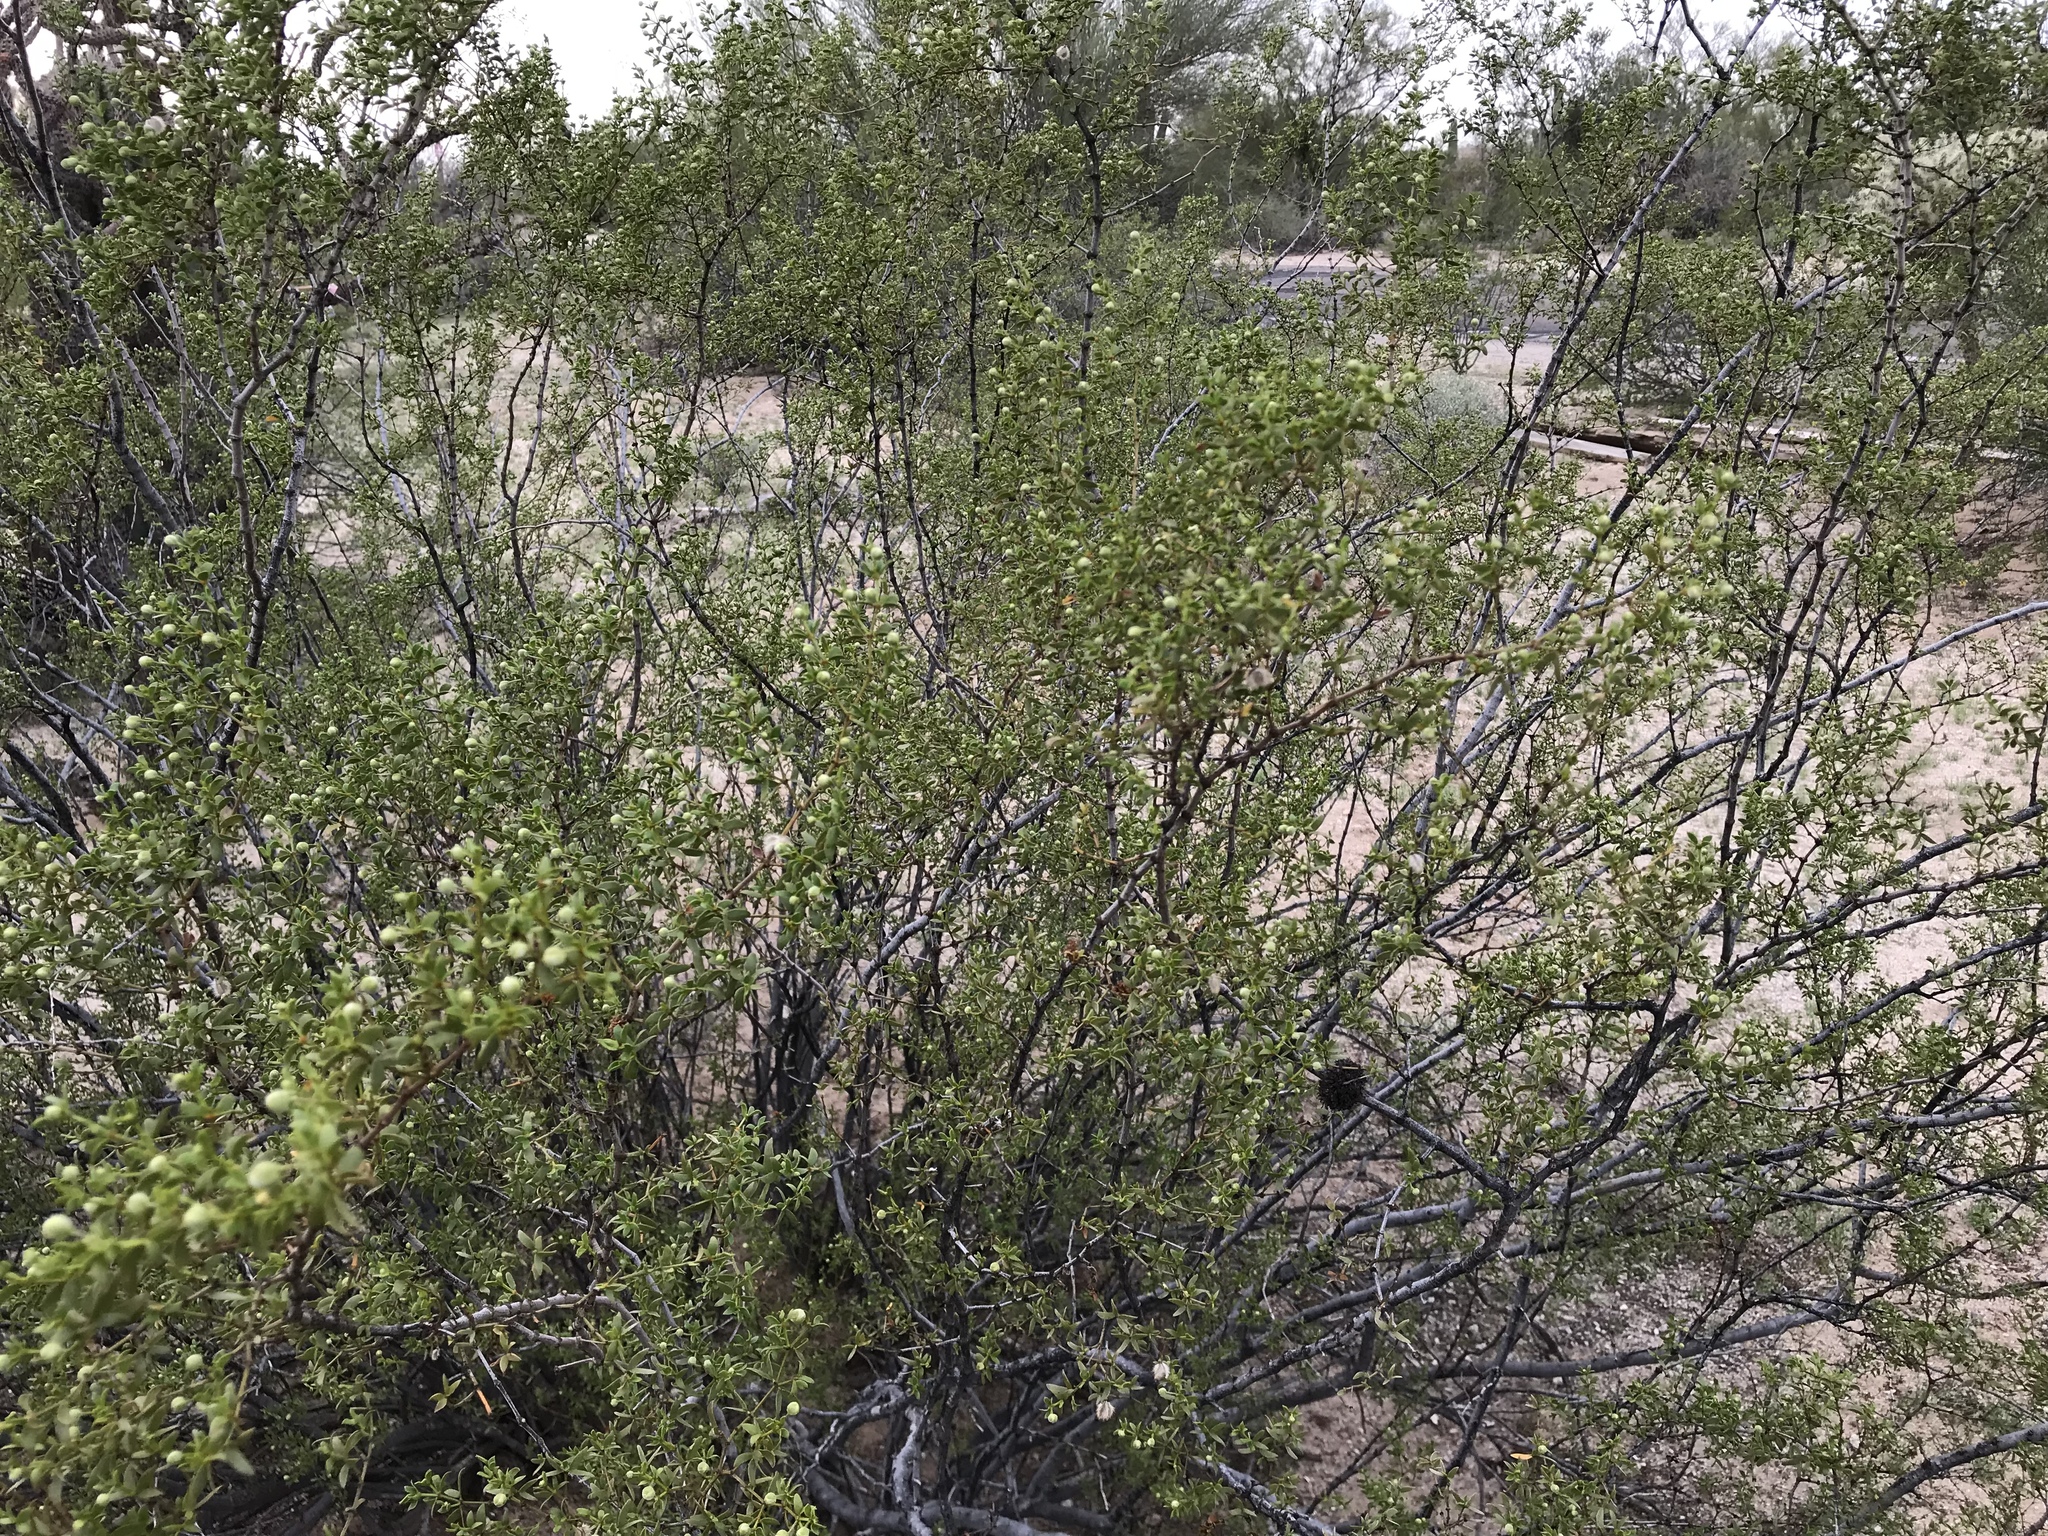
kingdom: Plantae
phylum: Tracheophyta
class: Magnoliopsida
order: Zygophyllales
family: Zygophyllaceae
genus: Larrea
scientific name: Larrea tridentata
